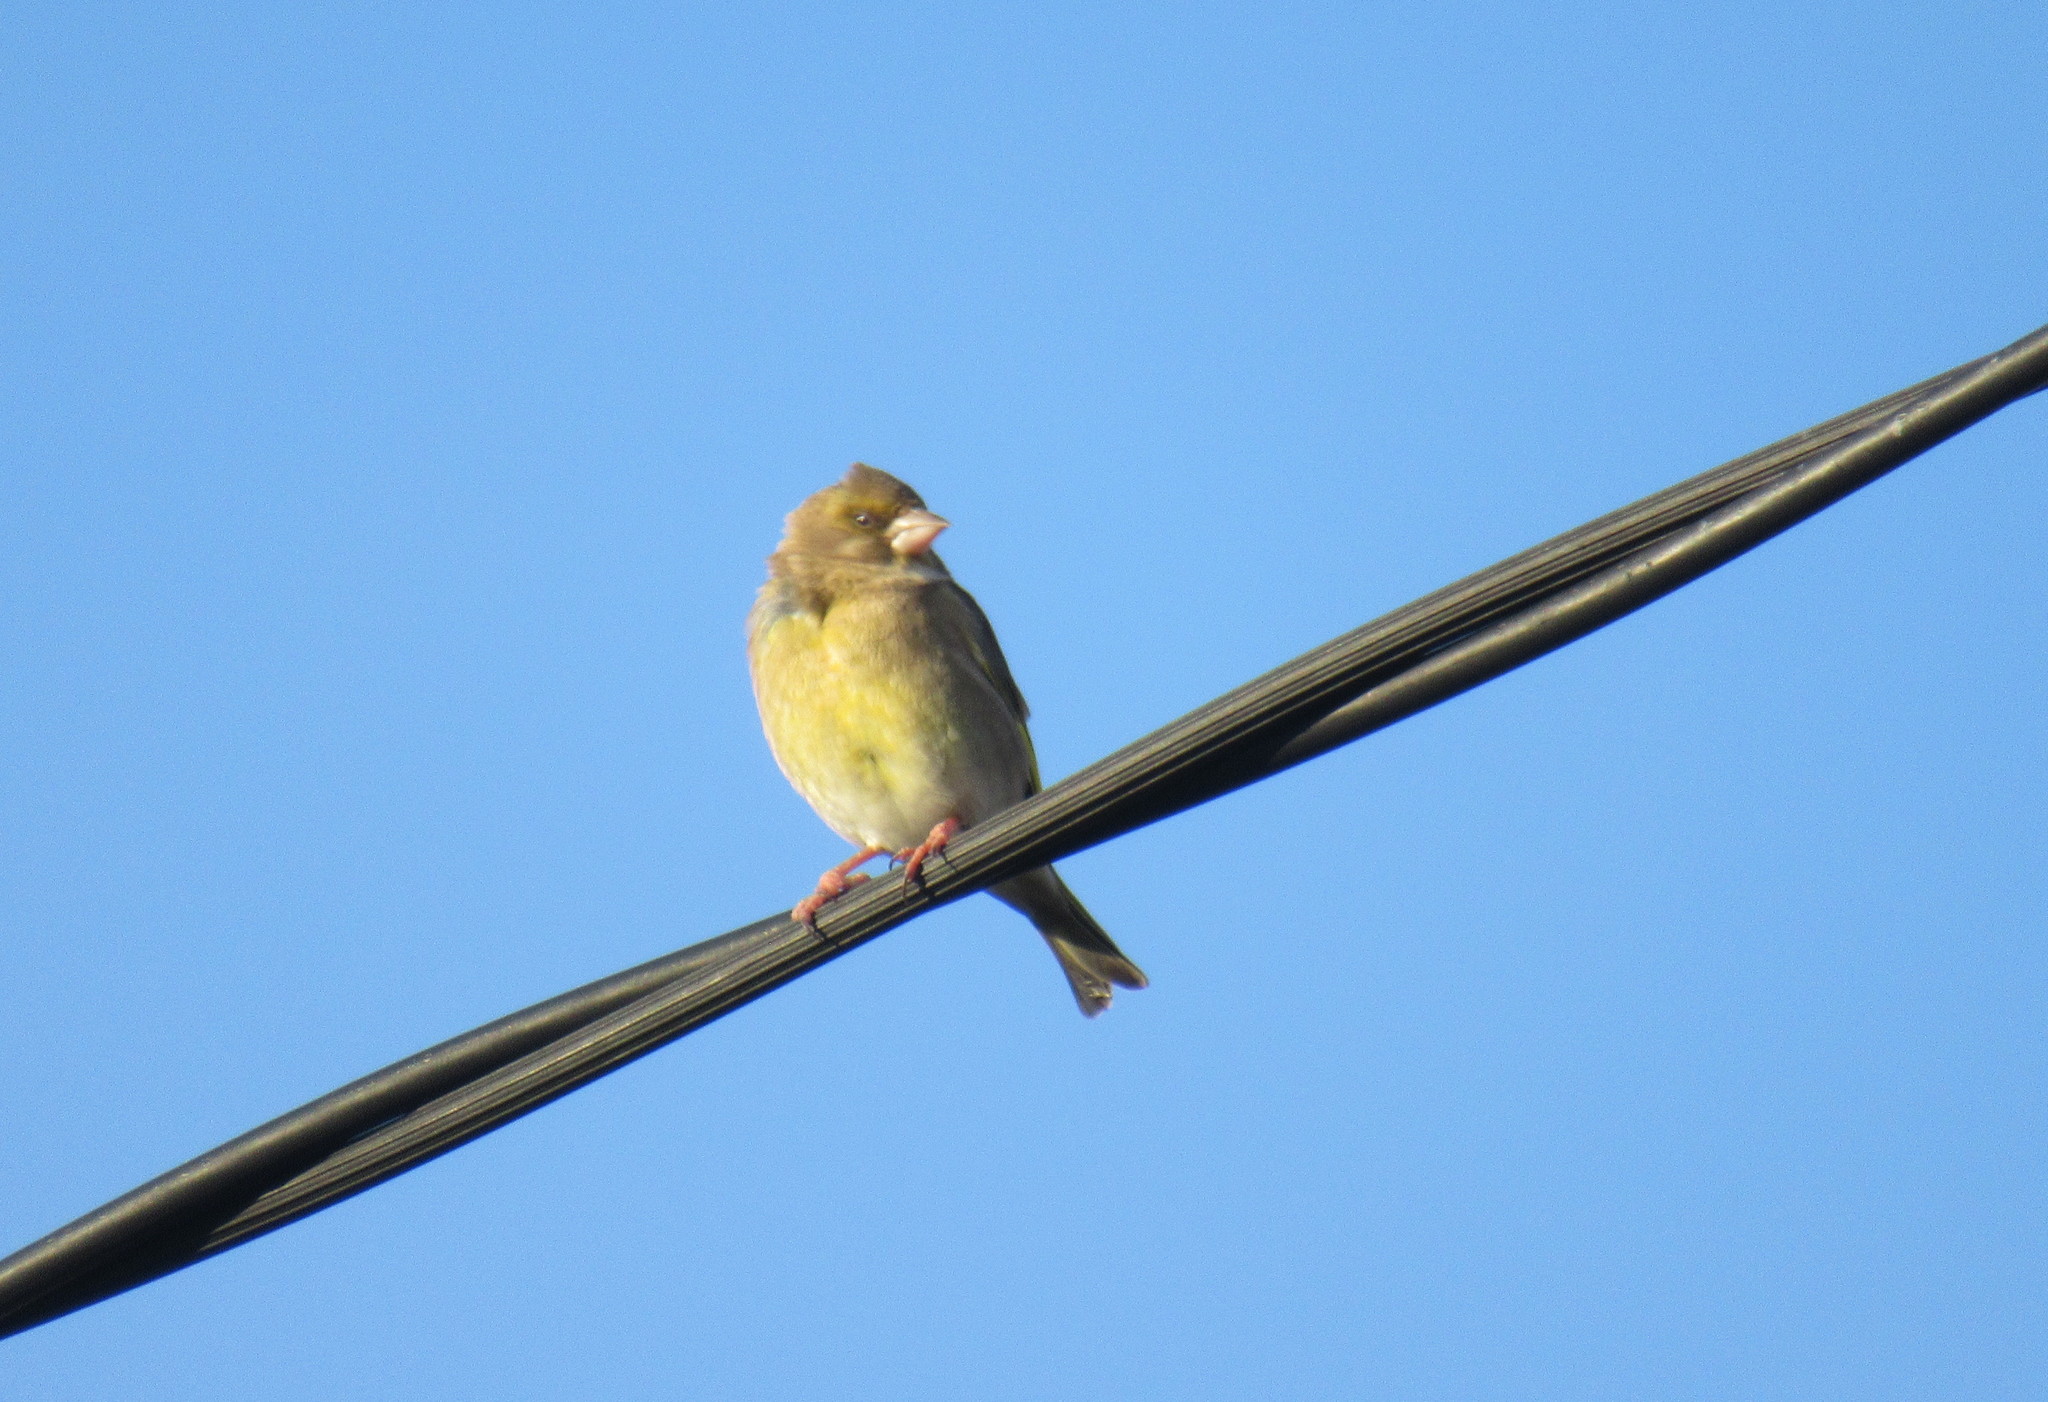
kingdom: Plantae
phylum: Tracheophyta
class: Liliopsida
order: Poales
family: Poaceae
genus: Chloris
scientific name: Chloris chloris
